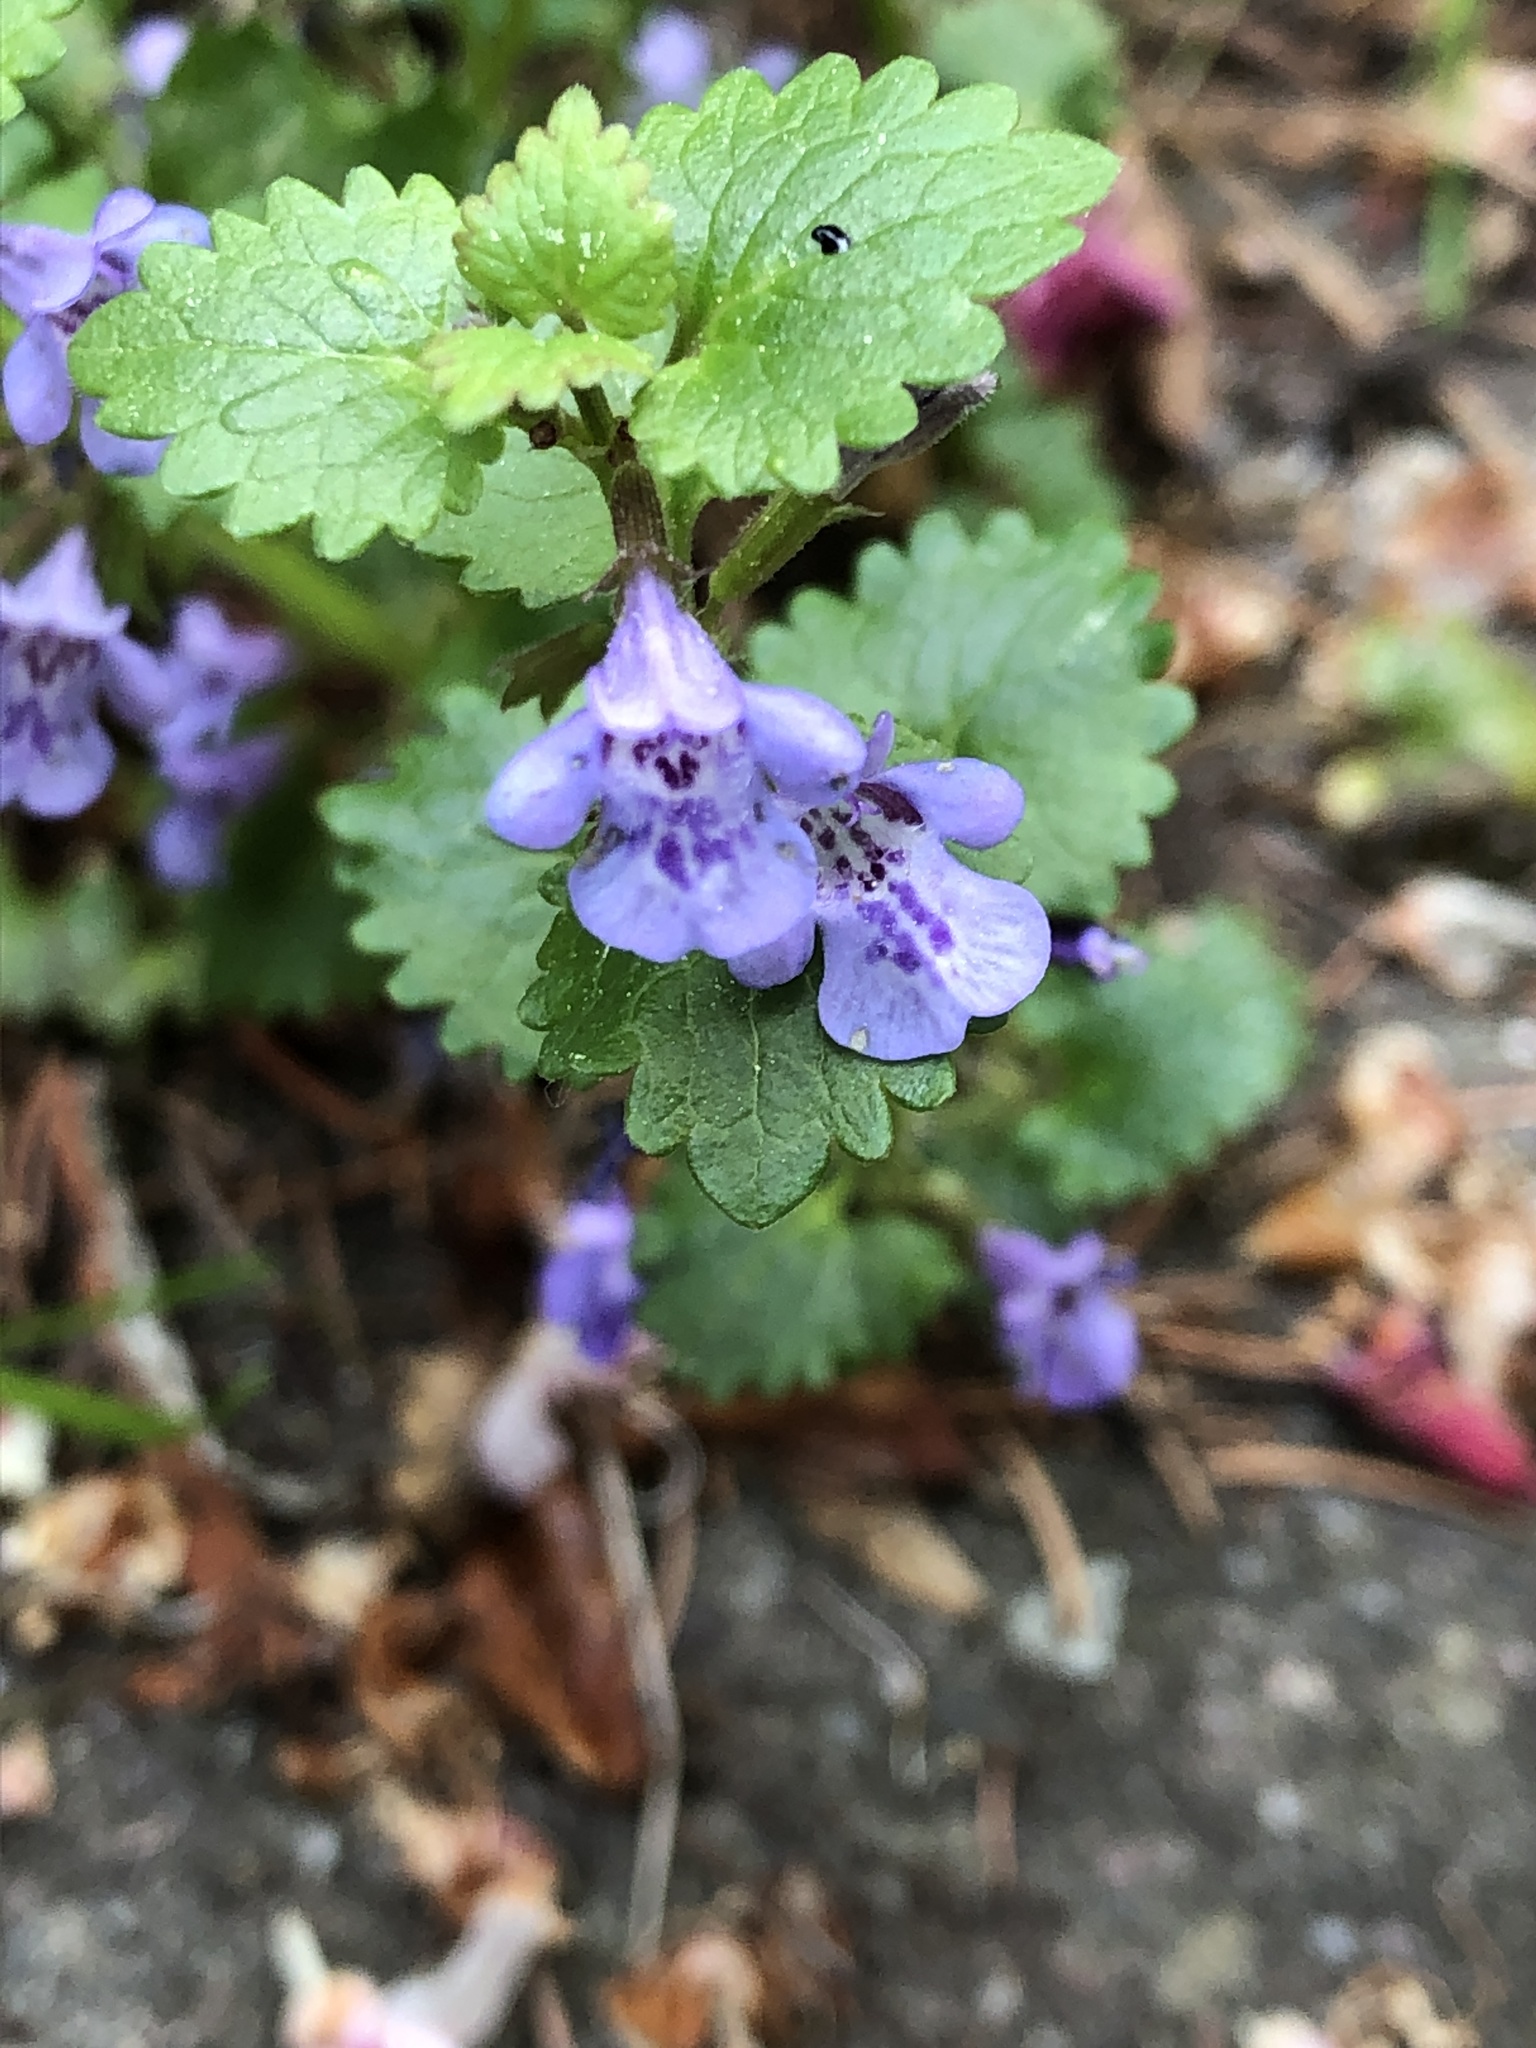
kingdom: Plantae
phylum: Tracheophyta
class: Magnoliopsida
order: Lamiales
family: Lamiaceae
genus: Glechoma
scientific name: Glechoma hederacea
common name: Ground ivy
